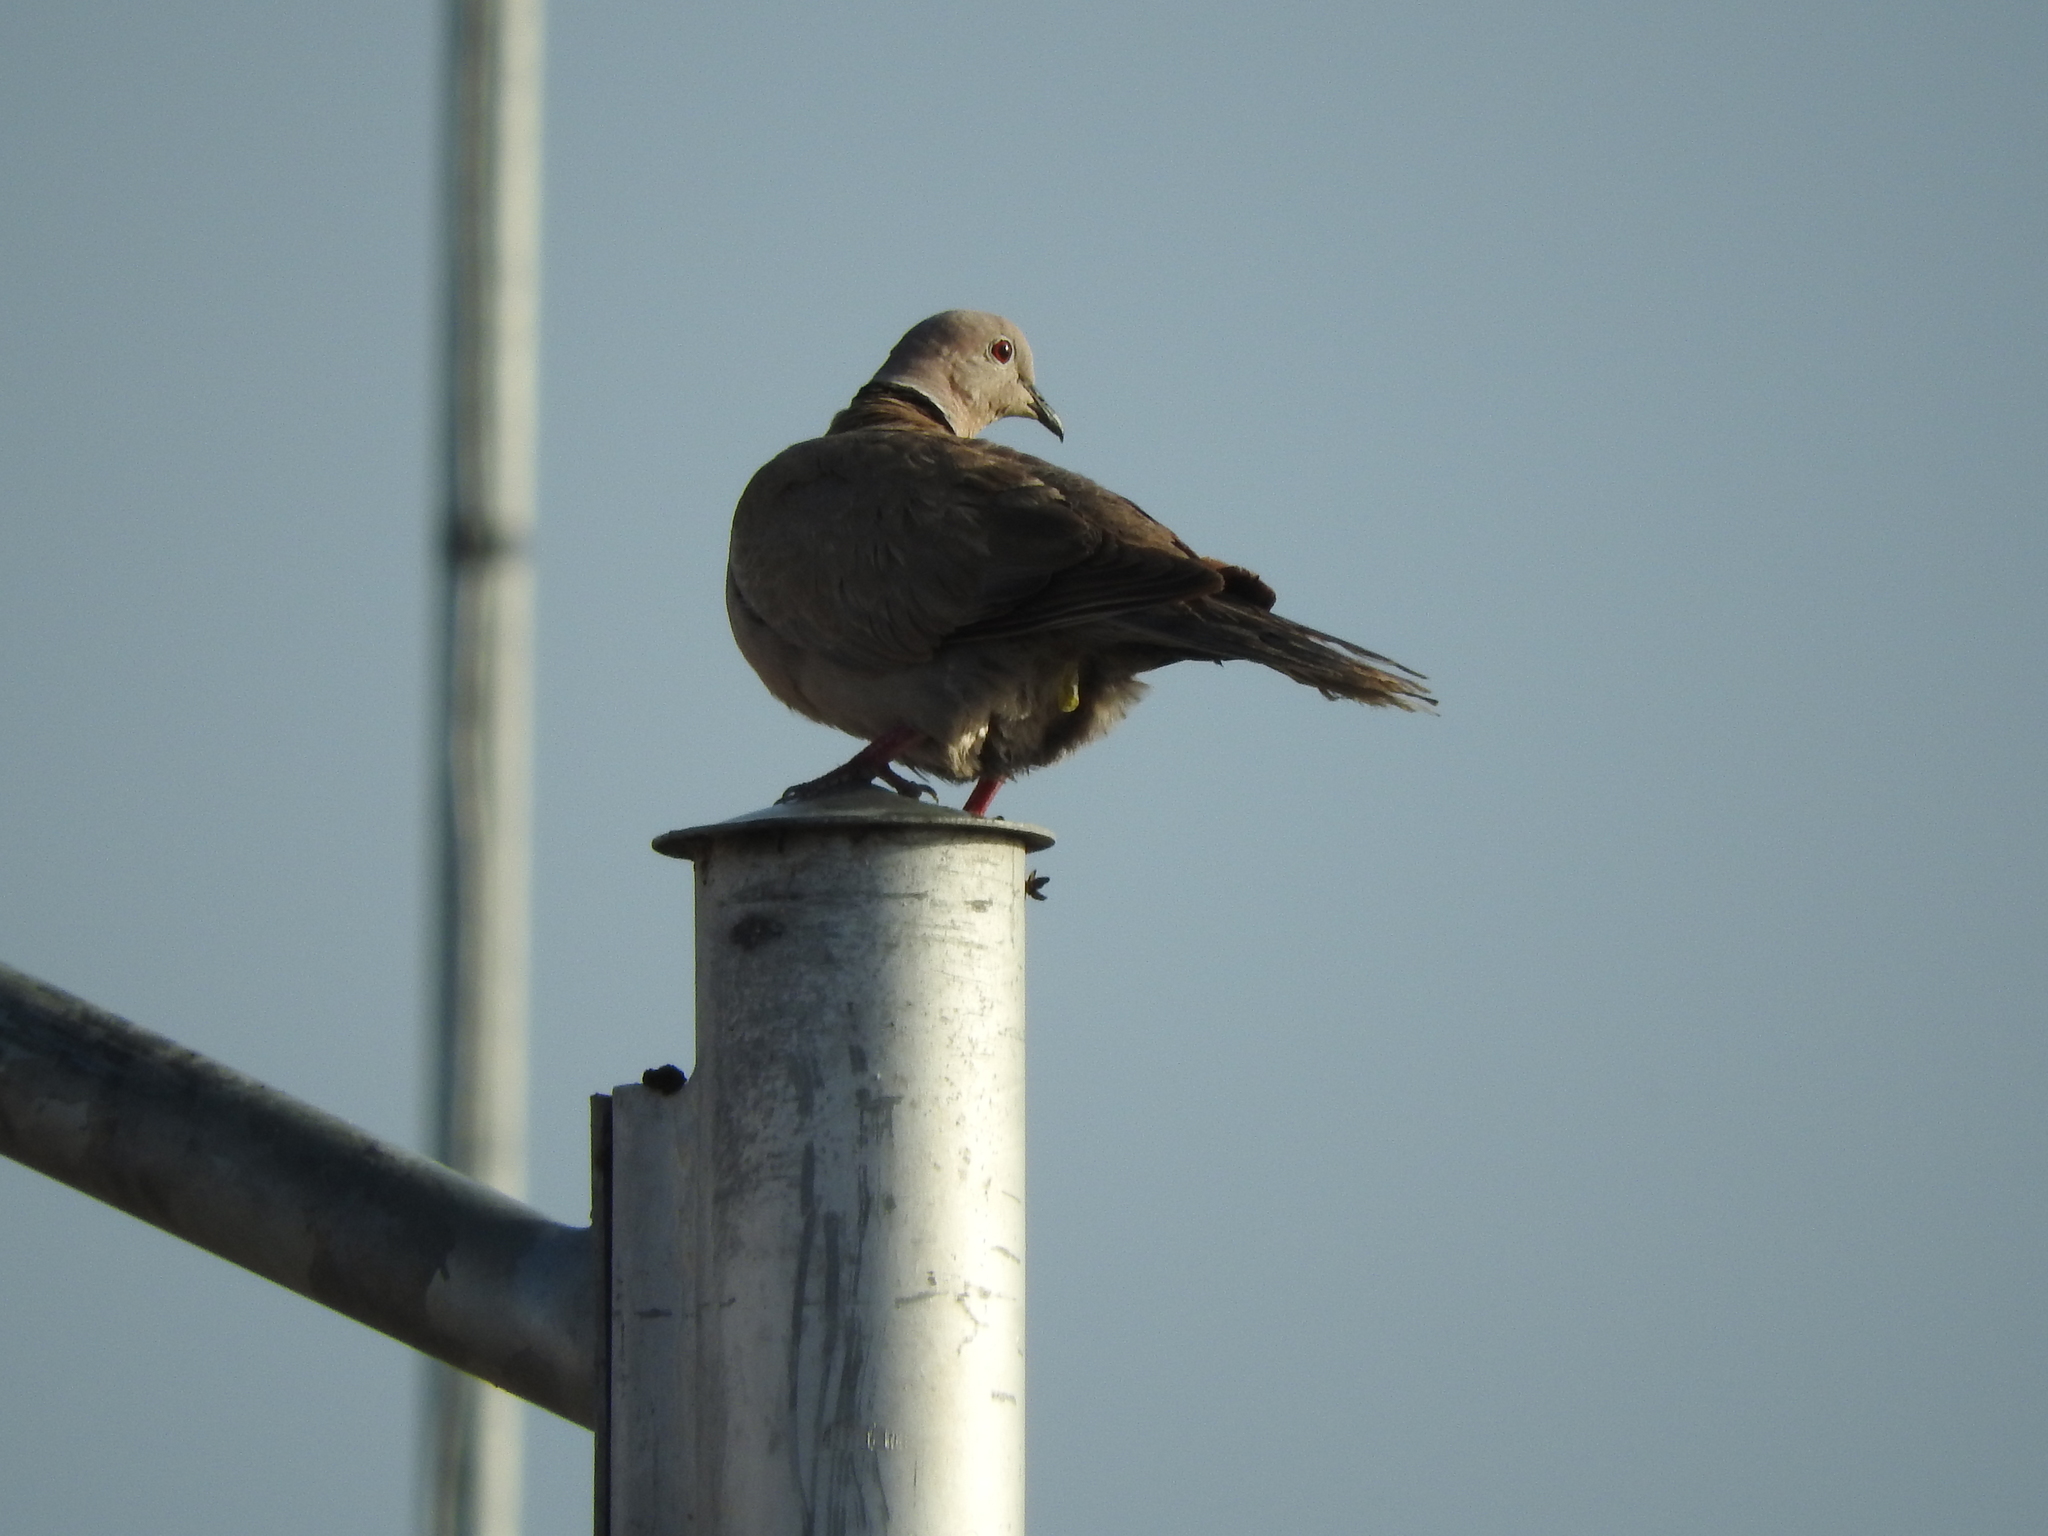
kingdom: Animalia
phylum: Chordata
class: Aves
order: Columbiformes
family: Columbidae
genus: Streptopelia
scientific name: Streptopelia decaocto
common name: Eurasian collared dove
